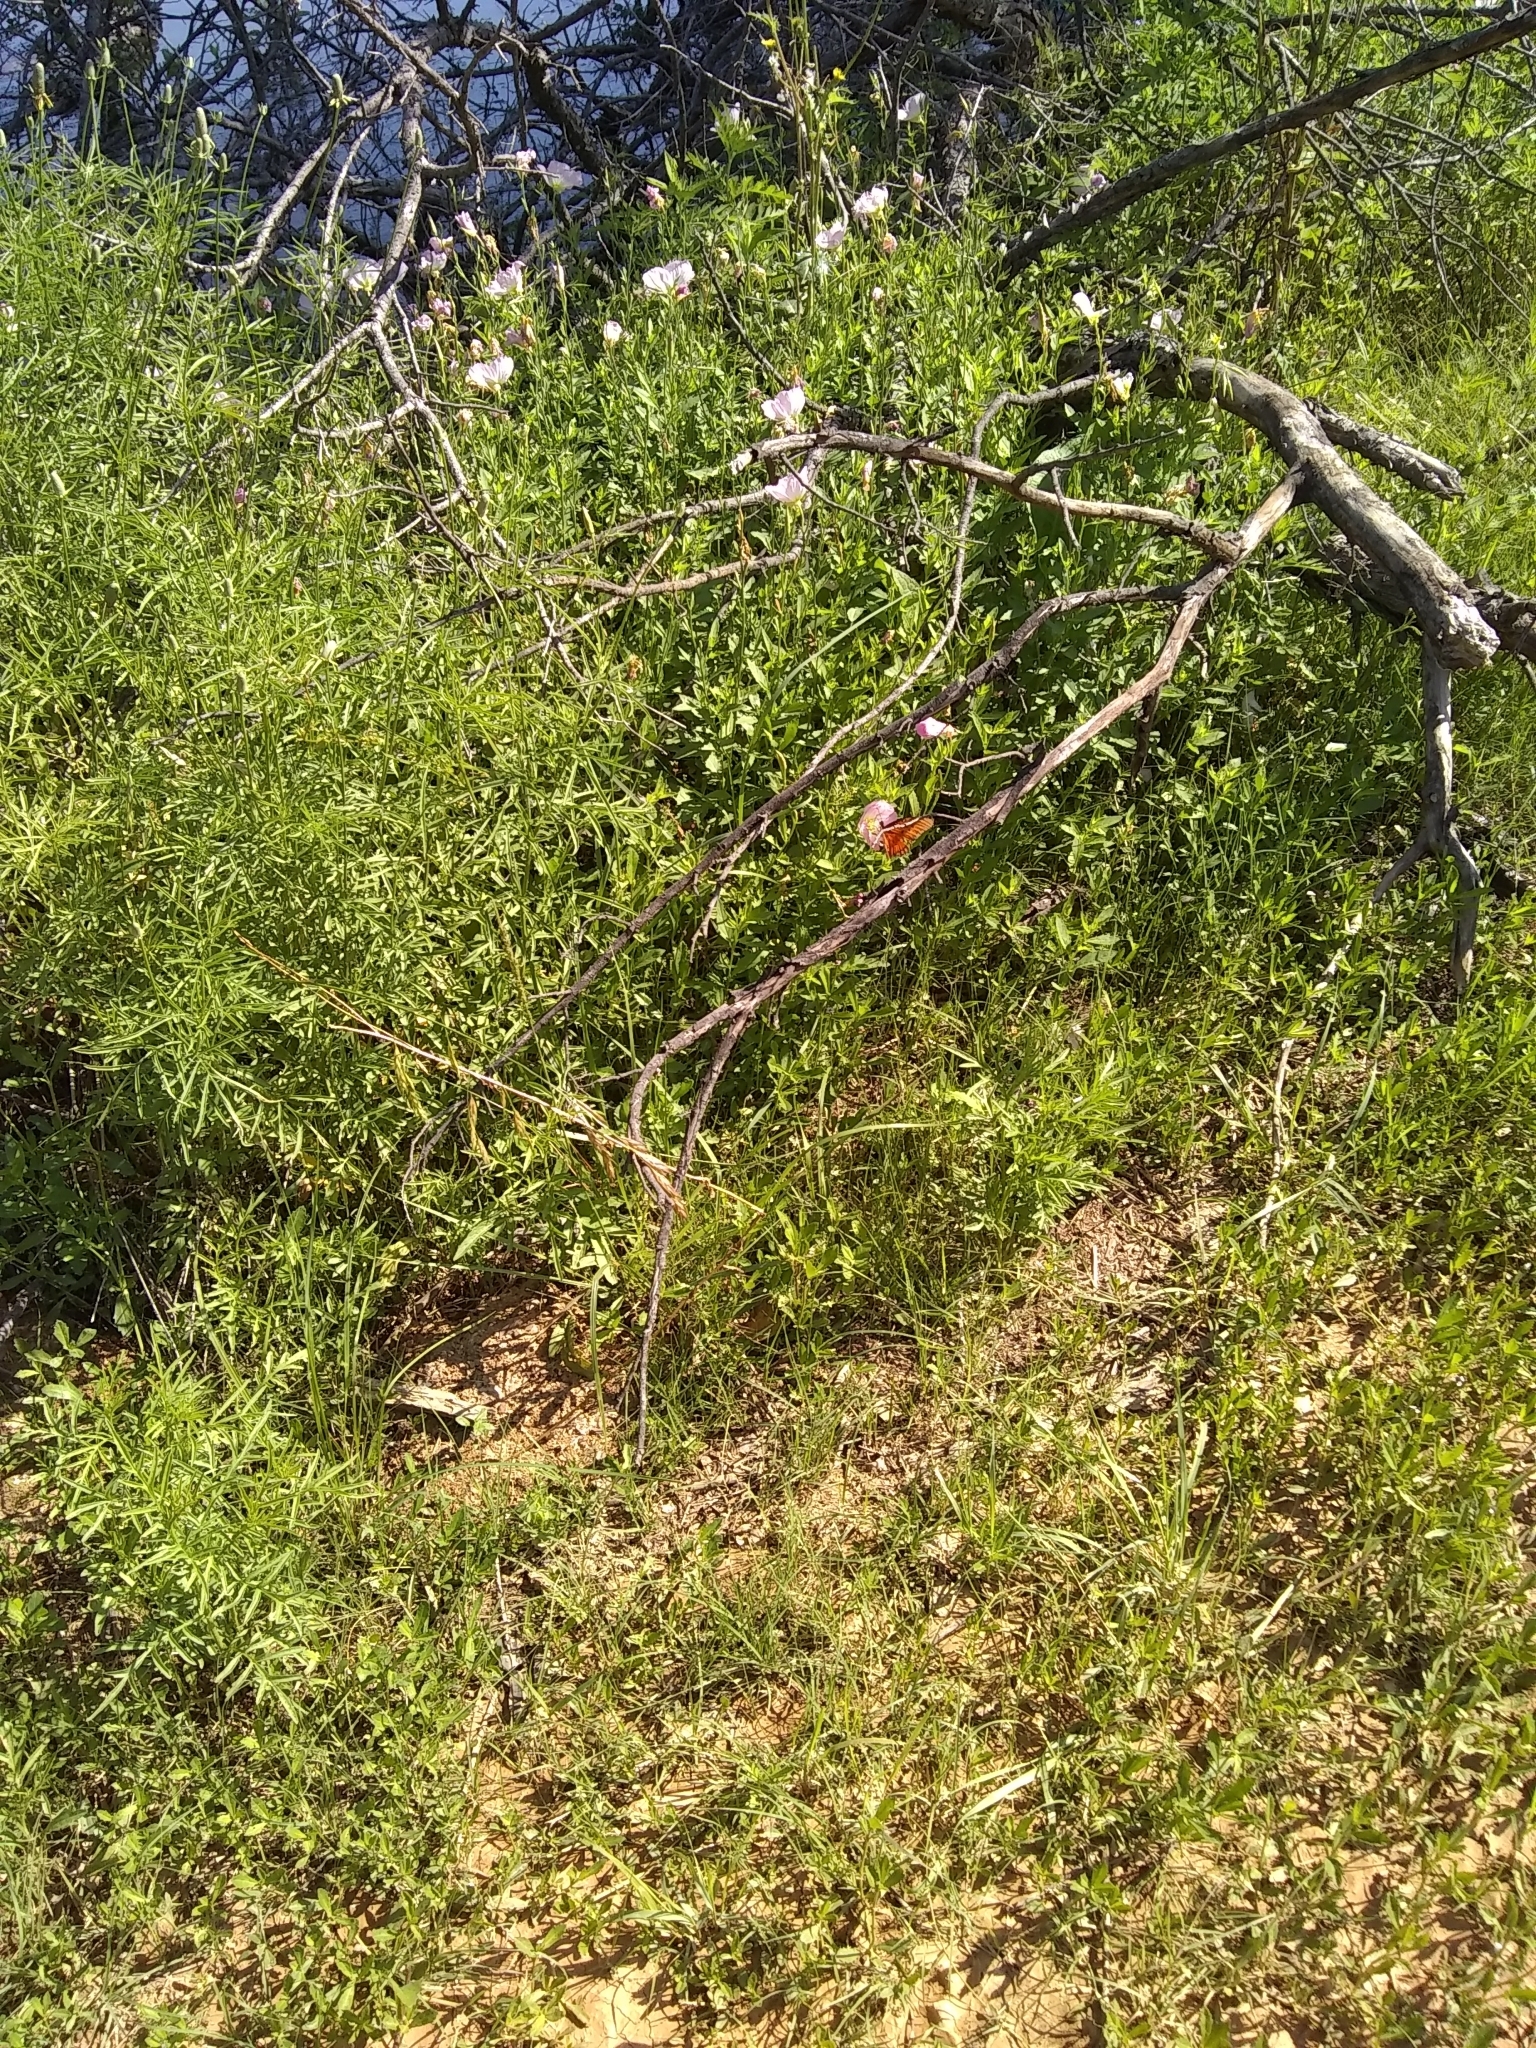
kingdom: Animalia
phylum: Arthropoda
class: Insecta
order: Lepidoptera
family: Nymphalidae
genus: Dione
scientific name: Dione vanillae
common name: Gulf fritillary
